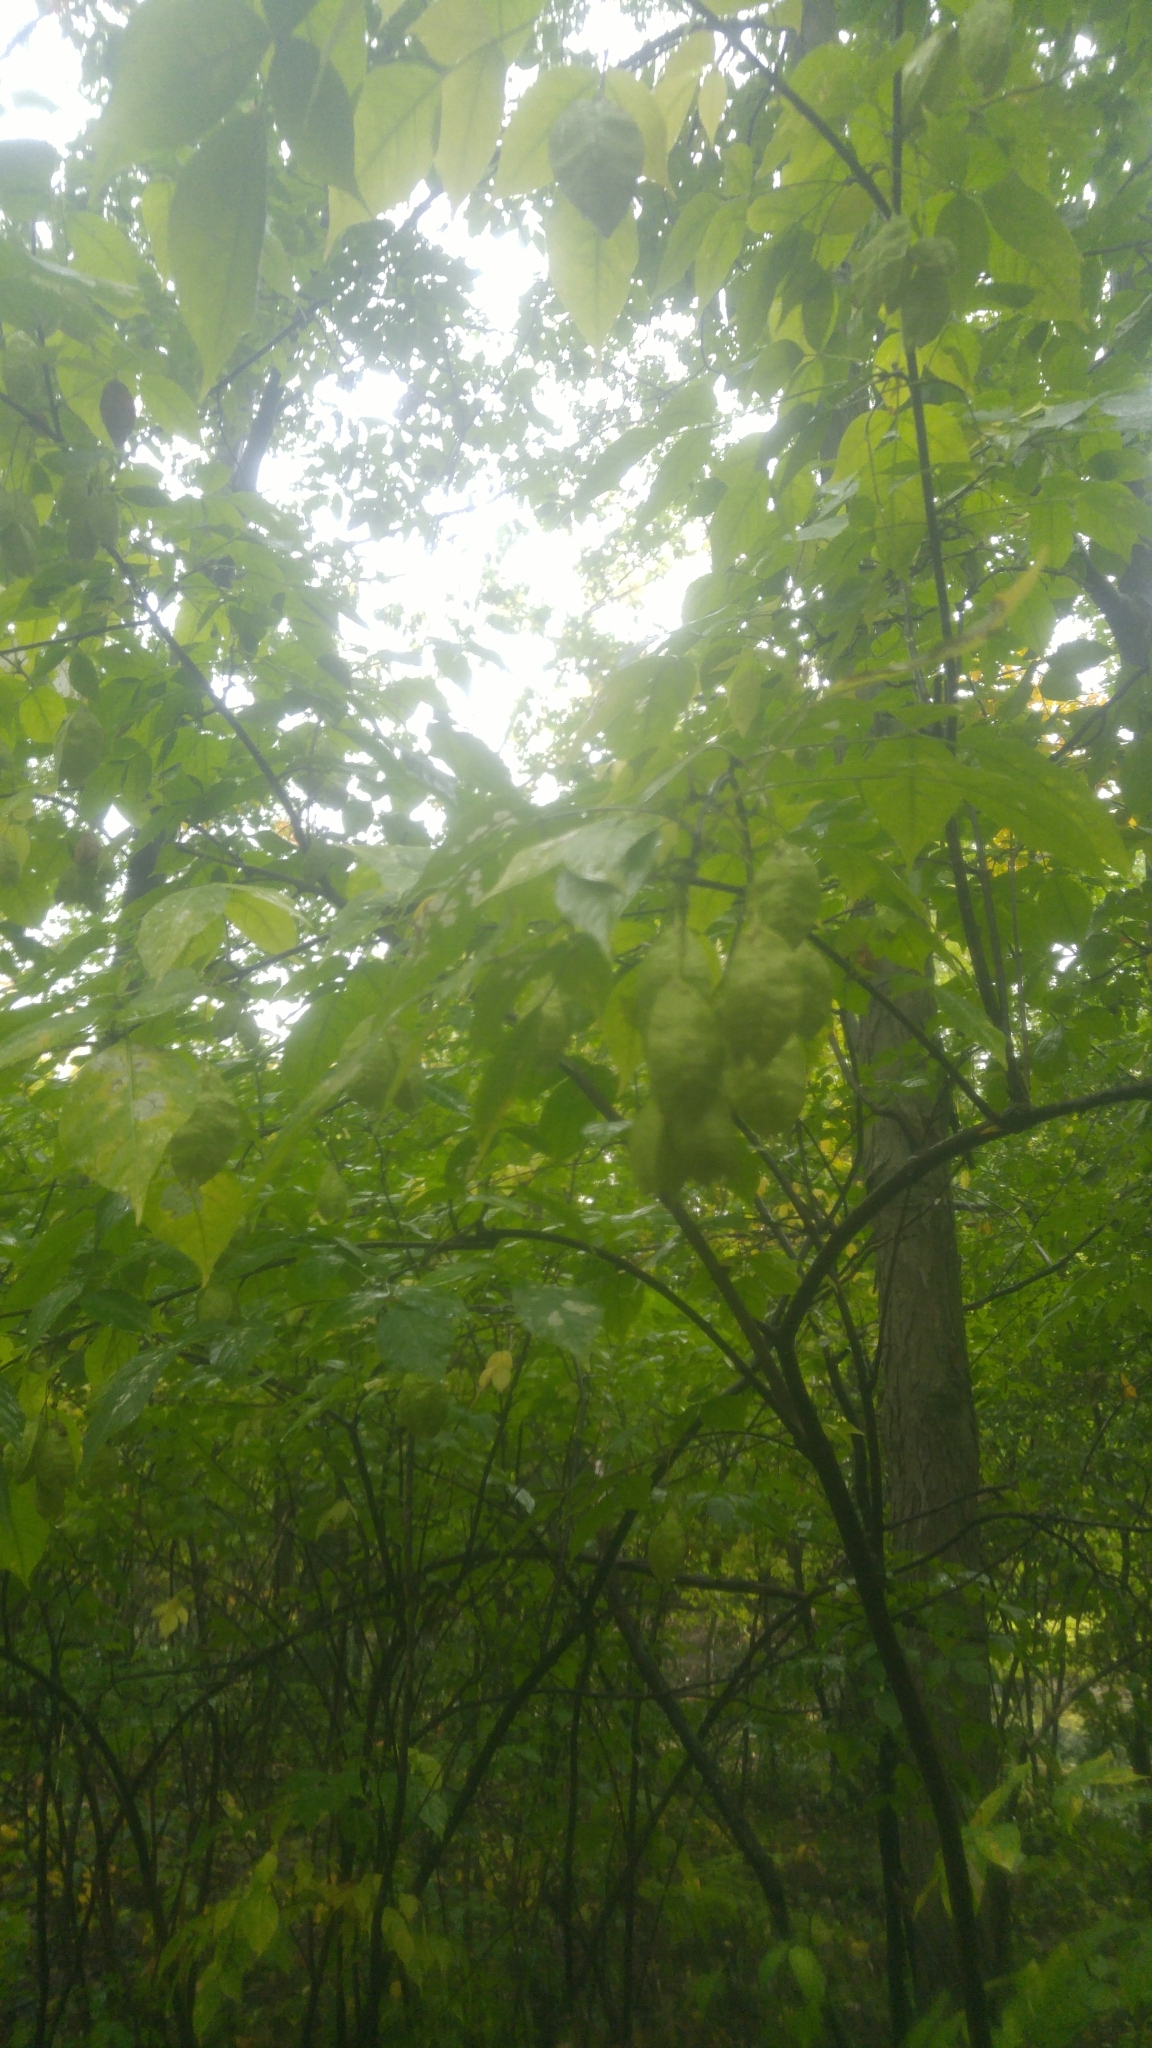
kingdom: Plantae
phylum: Tracheophyta
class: Magnoliopsida
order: Crossosomatales
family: Staphyleaceae
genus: Staphylea
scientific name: Staphylea trifolia
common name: American bladdernut
